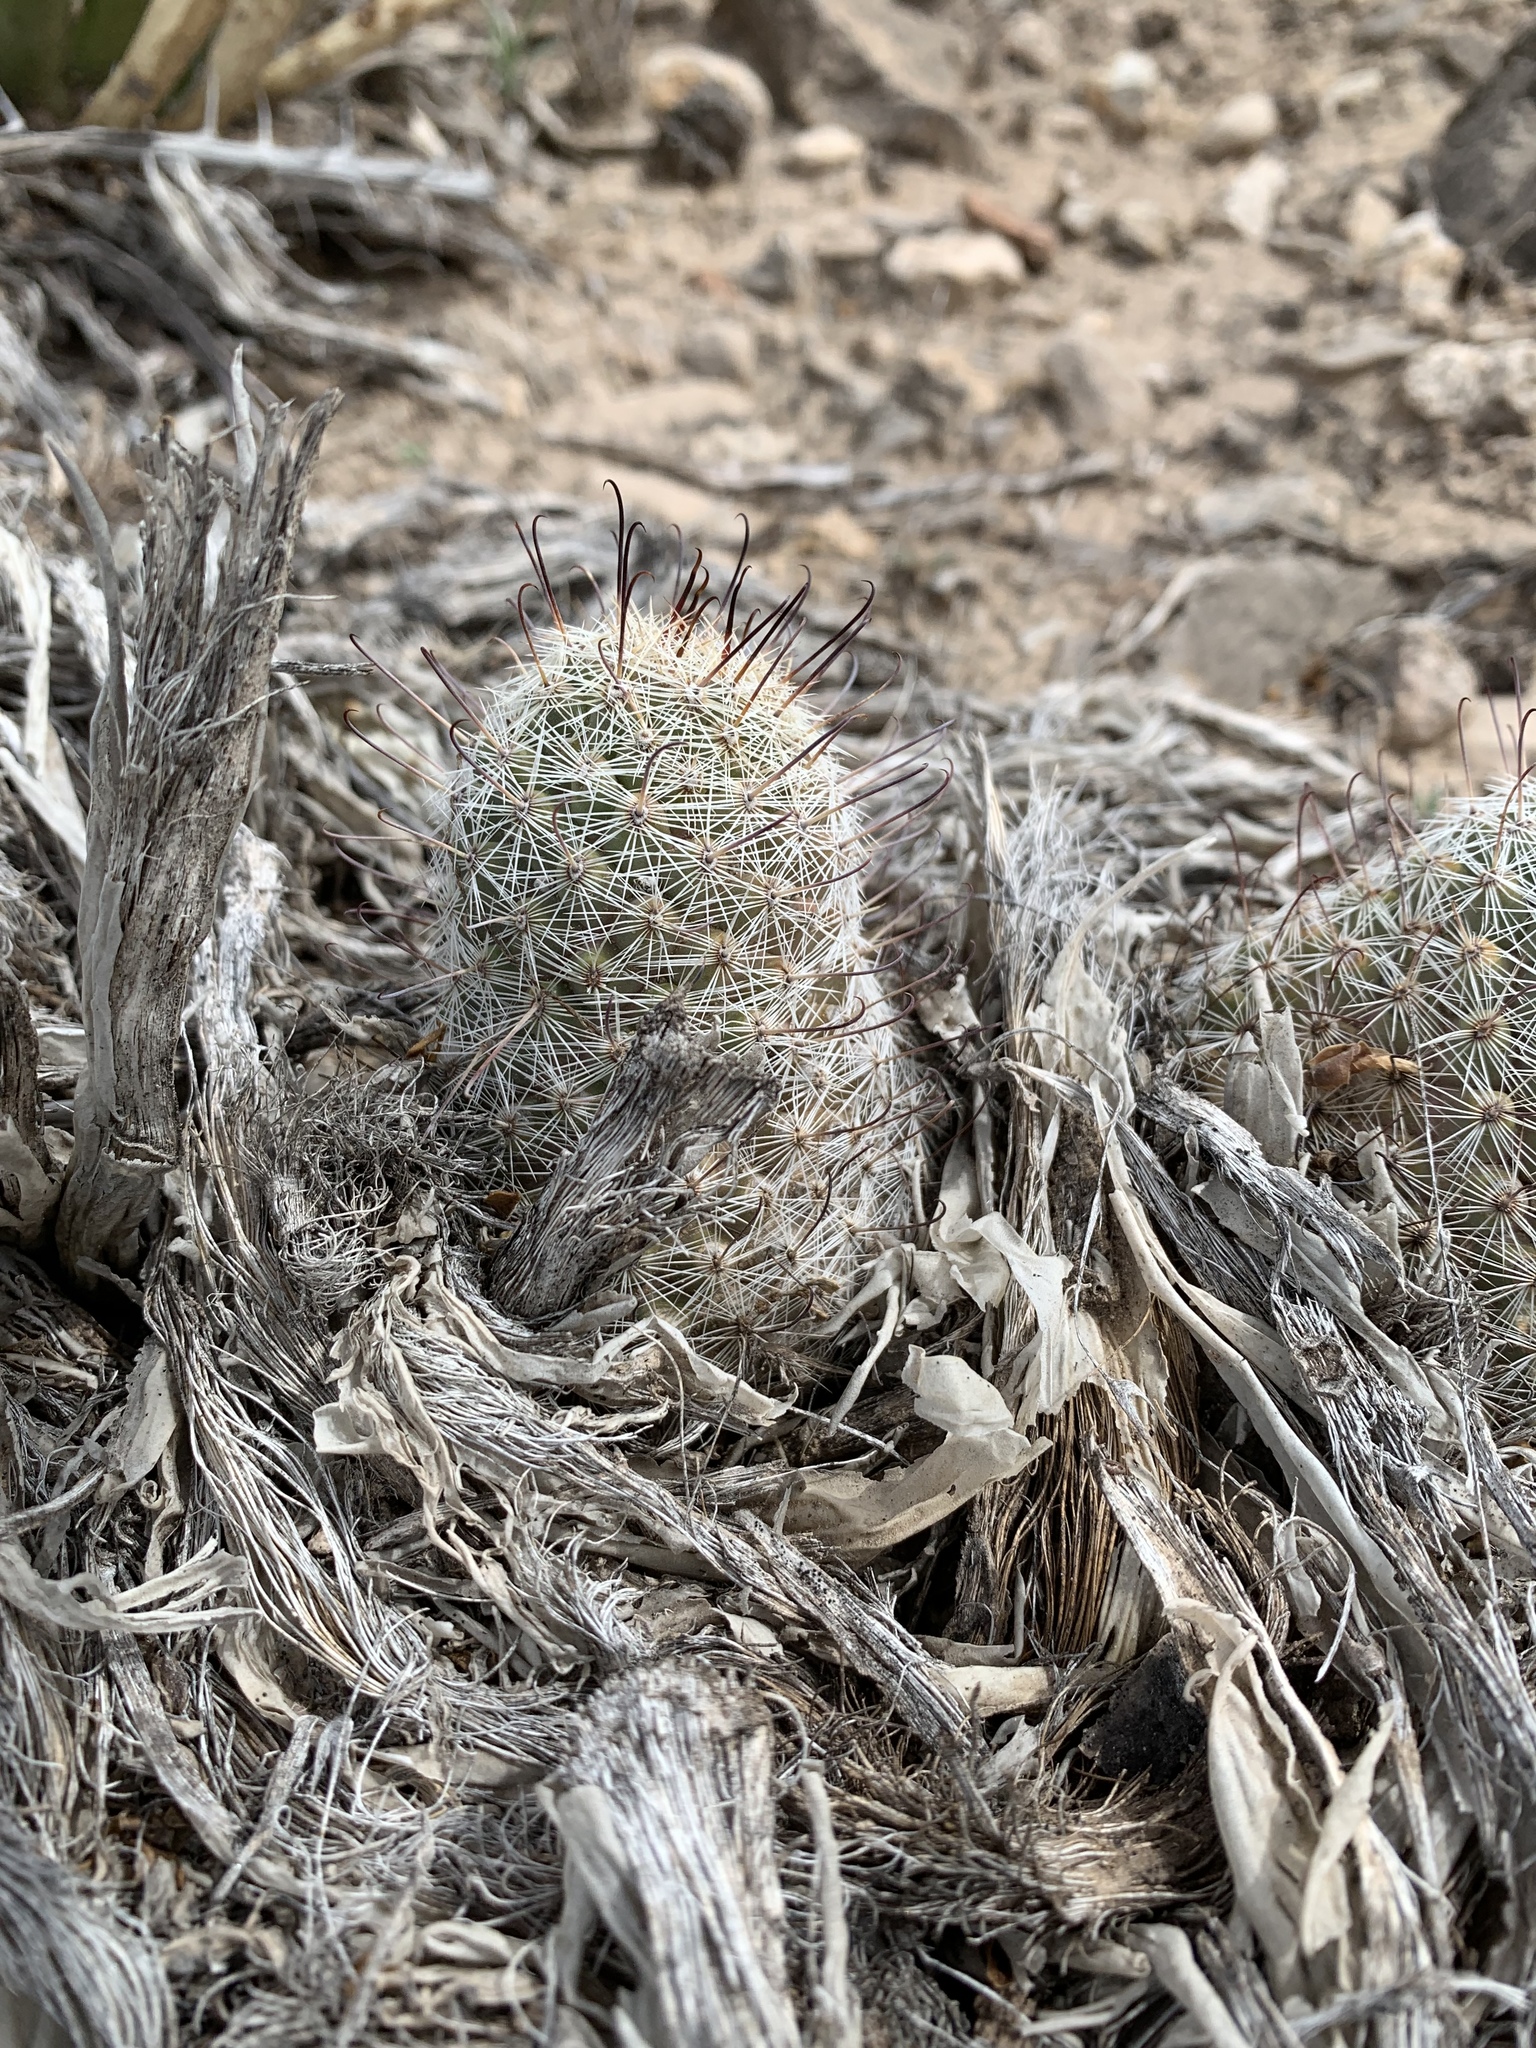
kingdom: Plantae
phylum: Tracheophyta
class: Magnoliopsida
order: Caryophyllales
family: Cactaceae
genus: Cochemiea
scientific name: Cochemiea grahamii
